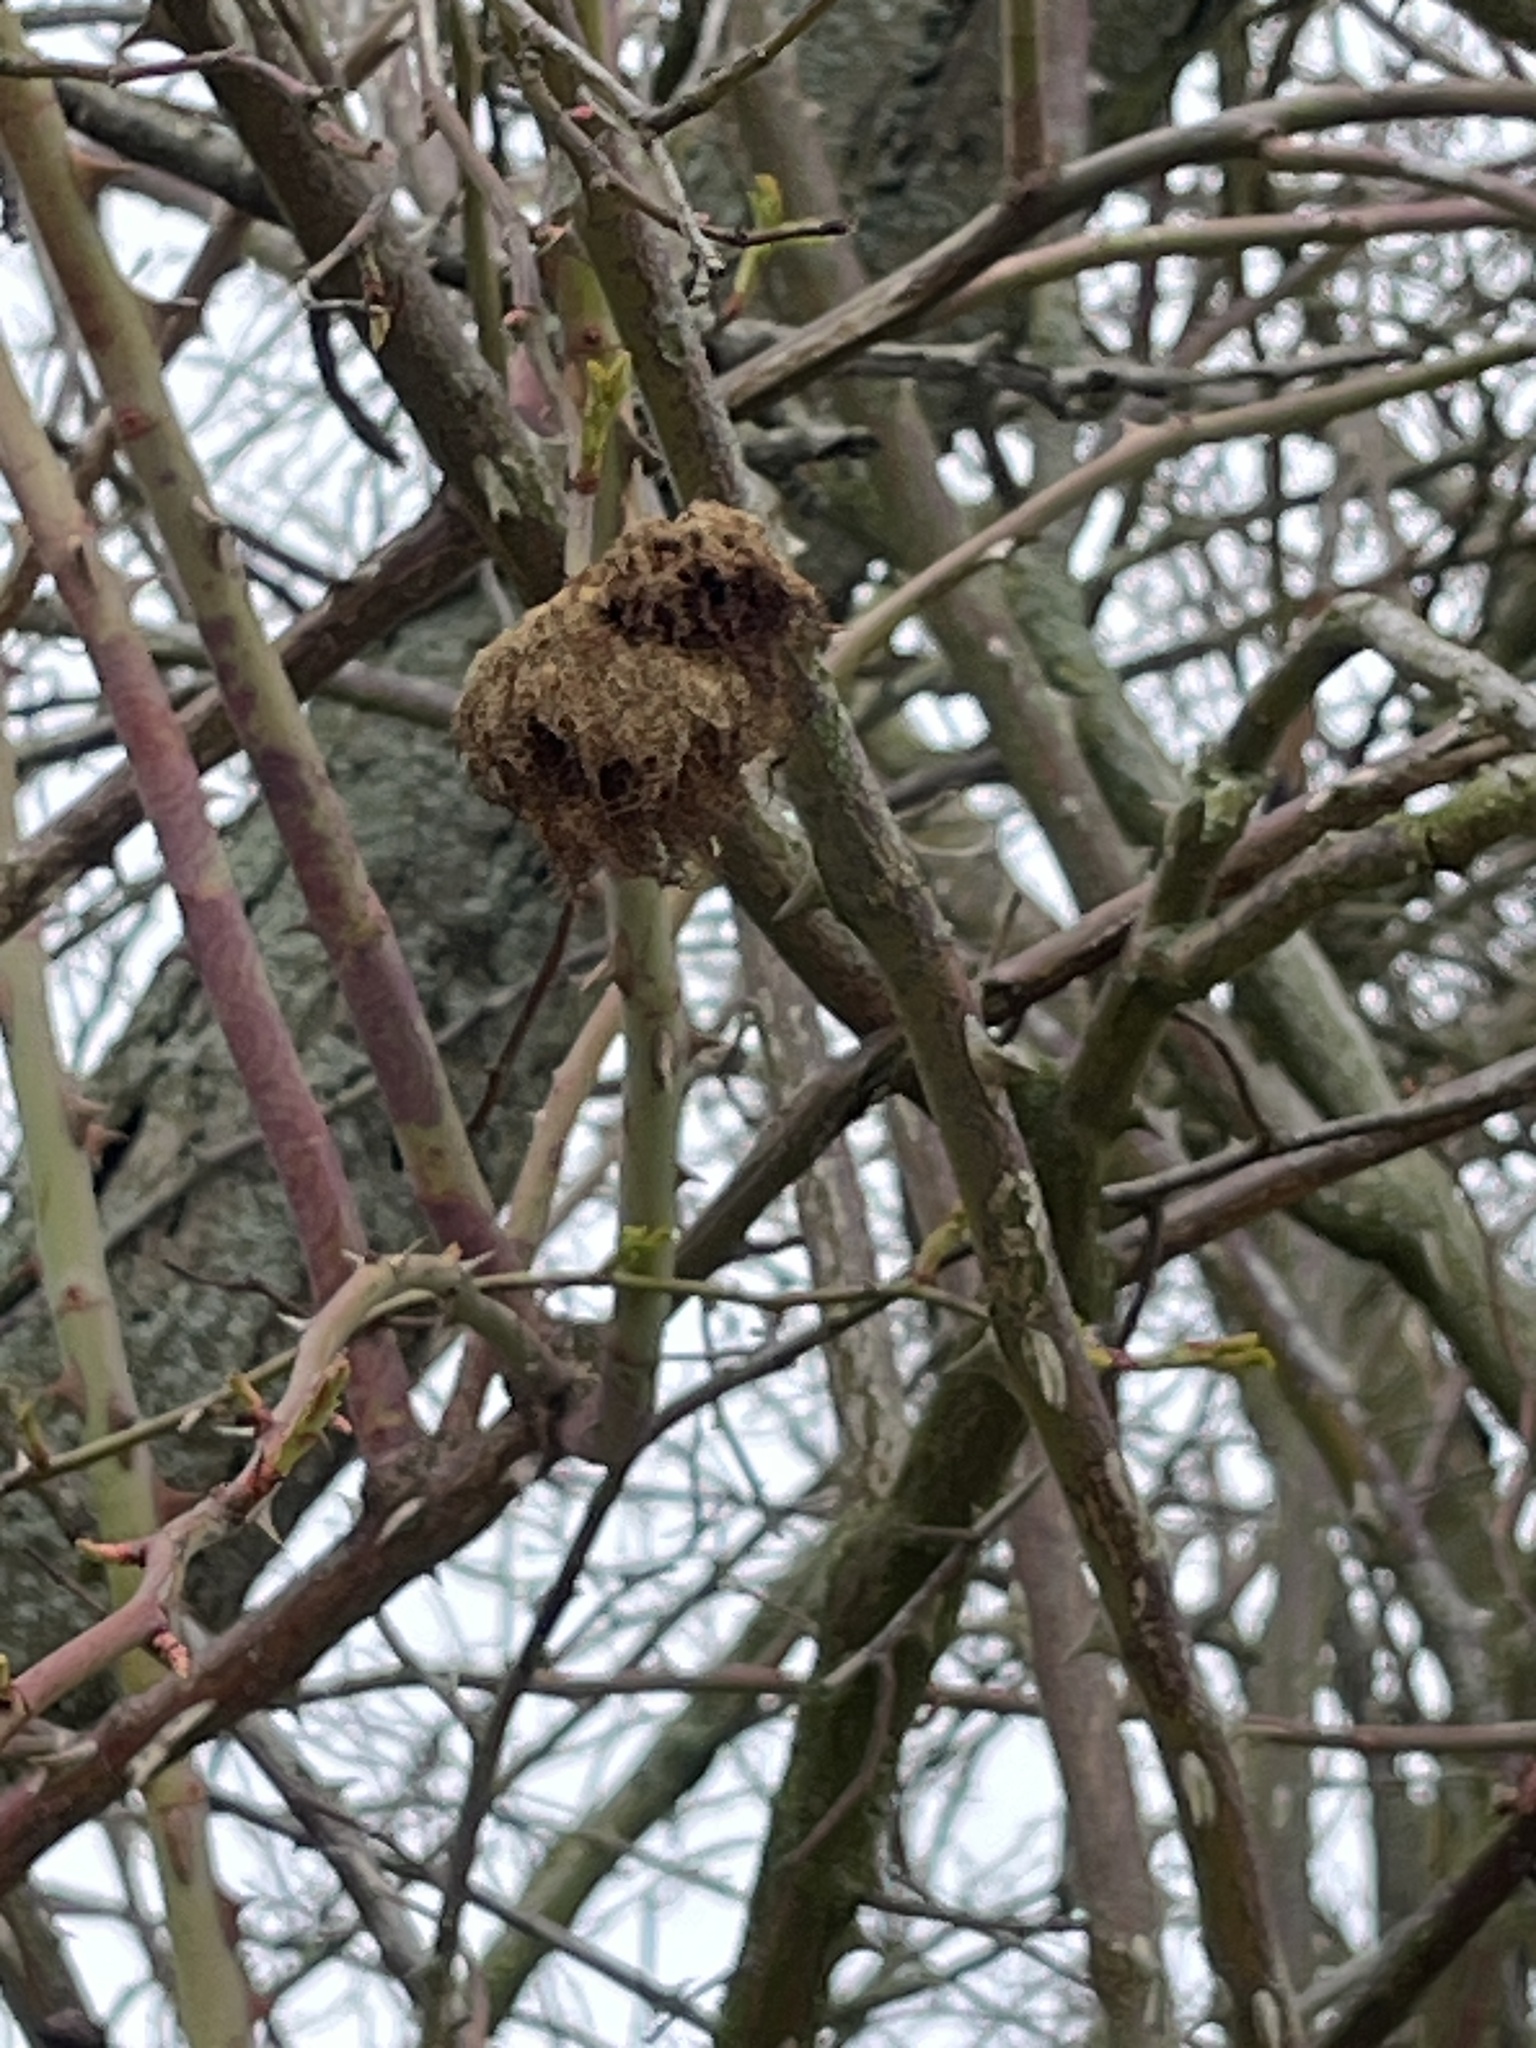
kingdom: Animalia
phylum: Arthropoda
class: Insecta
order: Hymenoptera
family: Cynipidae
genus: Diplolepis
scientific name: Diplolepis rosae
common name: Bedeguar gall
